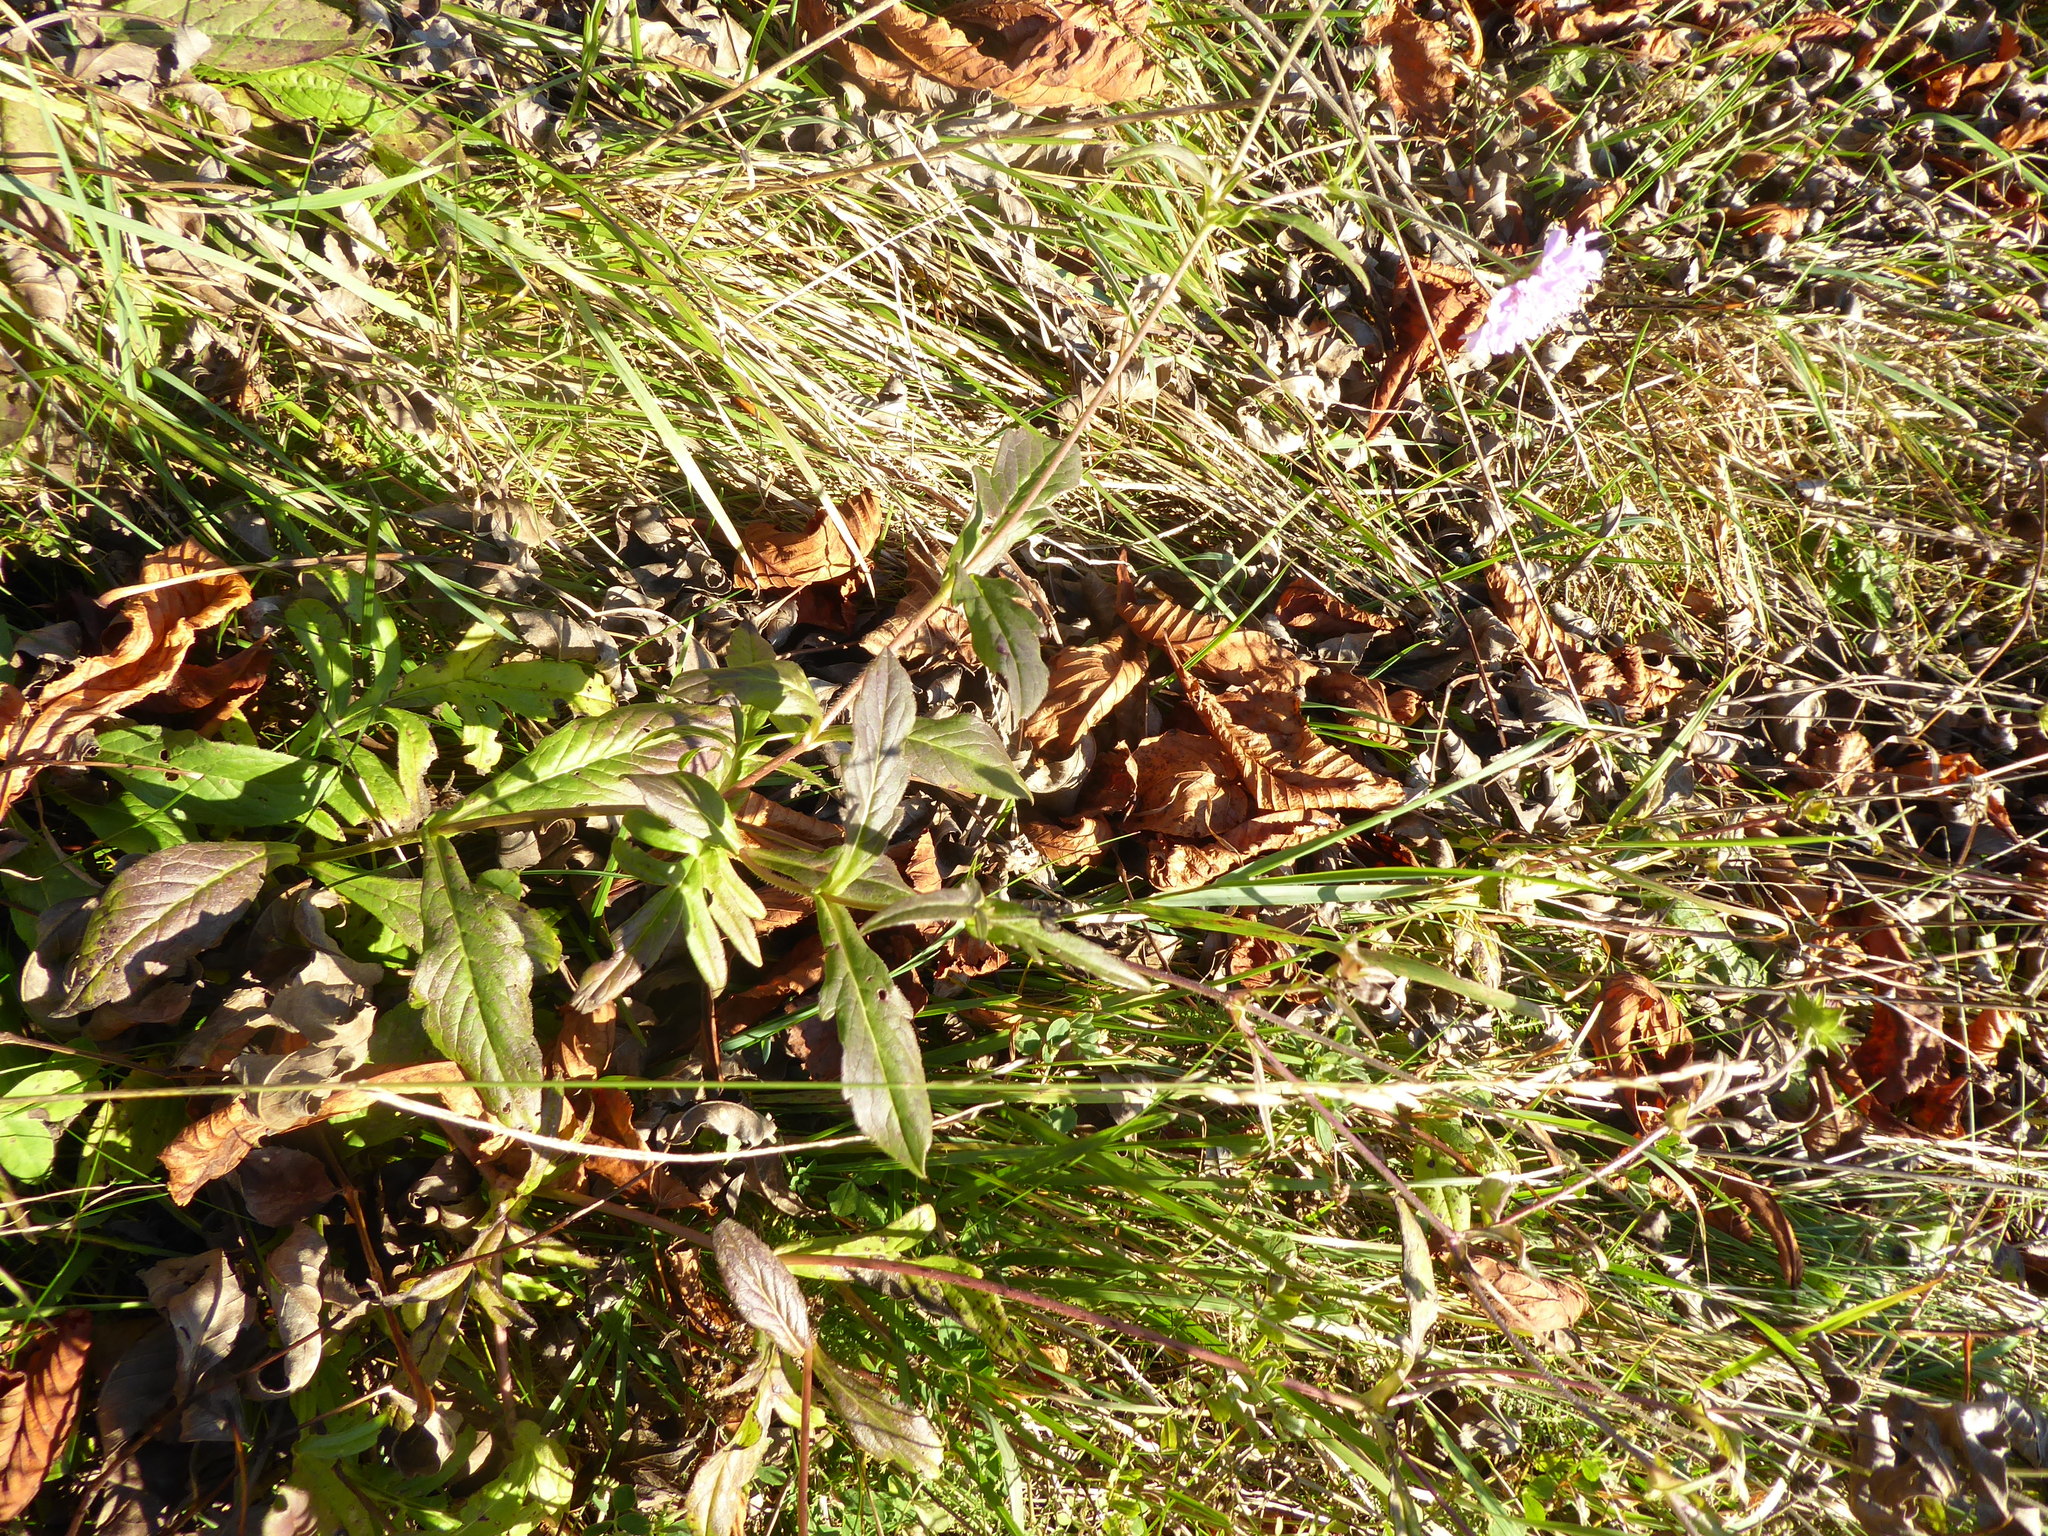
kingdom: Plantae
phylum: Tracheophyta
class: Magnoliopsida
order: Dipsacales
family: Caprifoliaceae
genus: Knautia
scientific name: Knautia arvensis
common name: Field scabiosa
